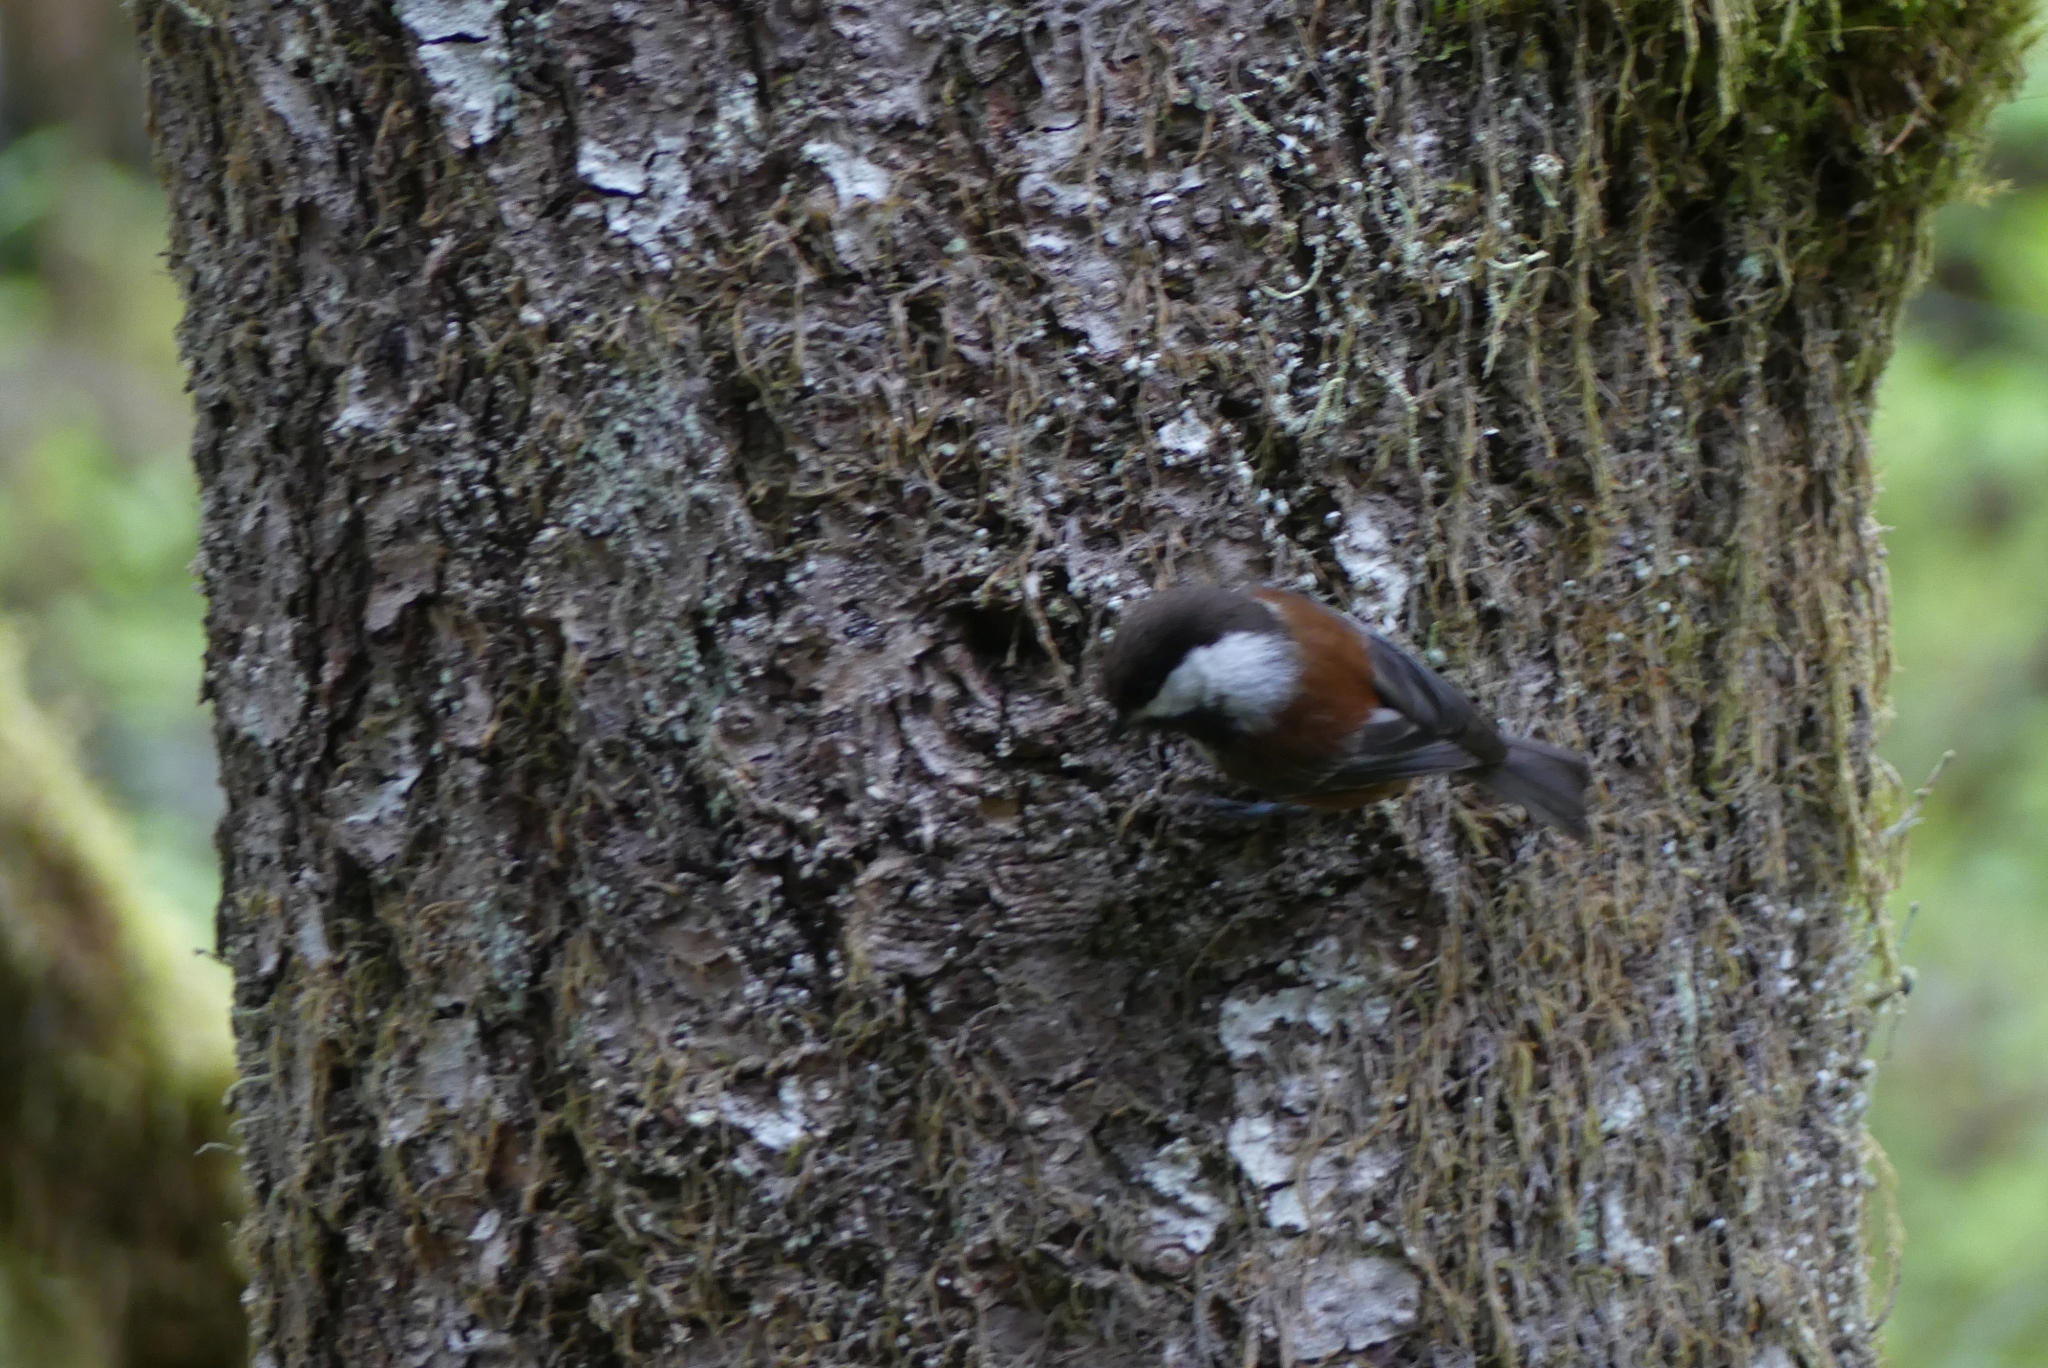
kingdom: Animalia
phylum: Chordata
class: Aves
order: Passeriformes
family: Paridae
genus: Poecile
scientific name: Poecile rufescens
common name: Chestnut-backed chickadee
